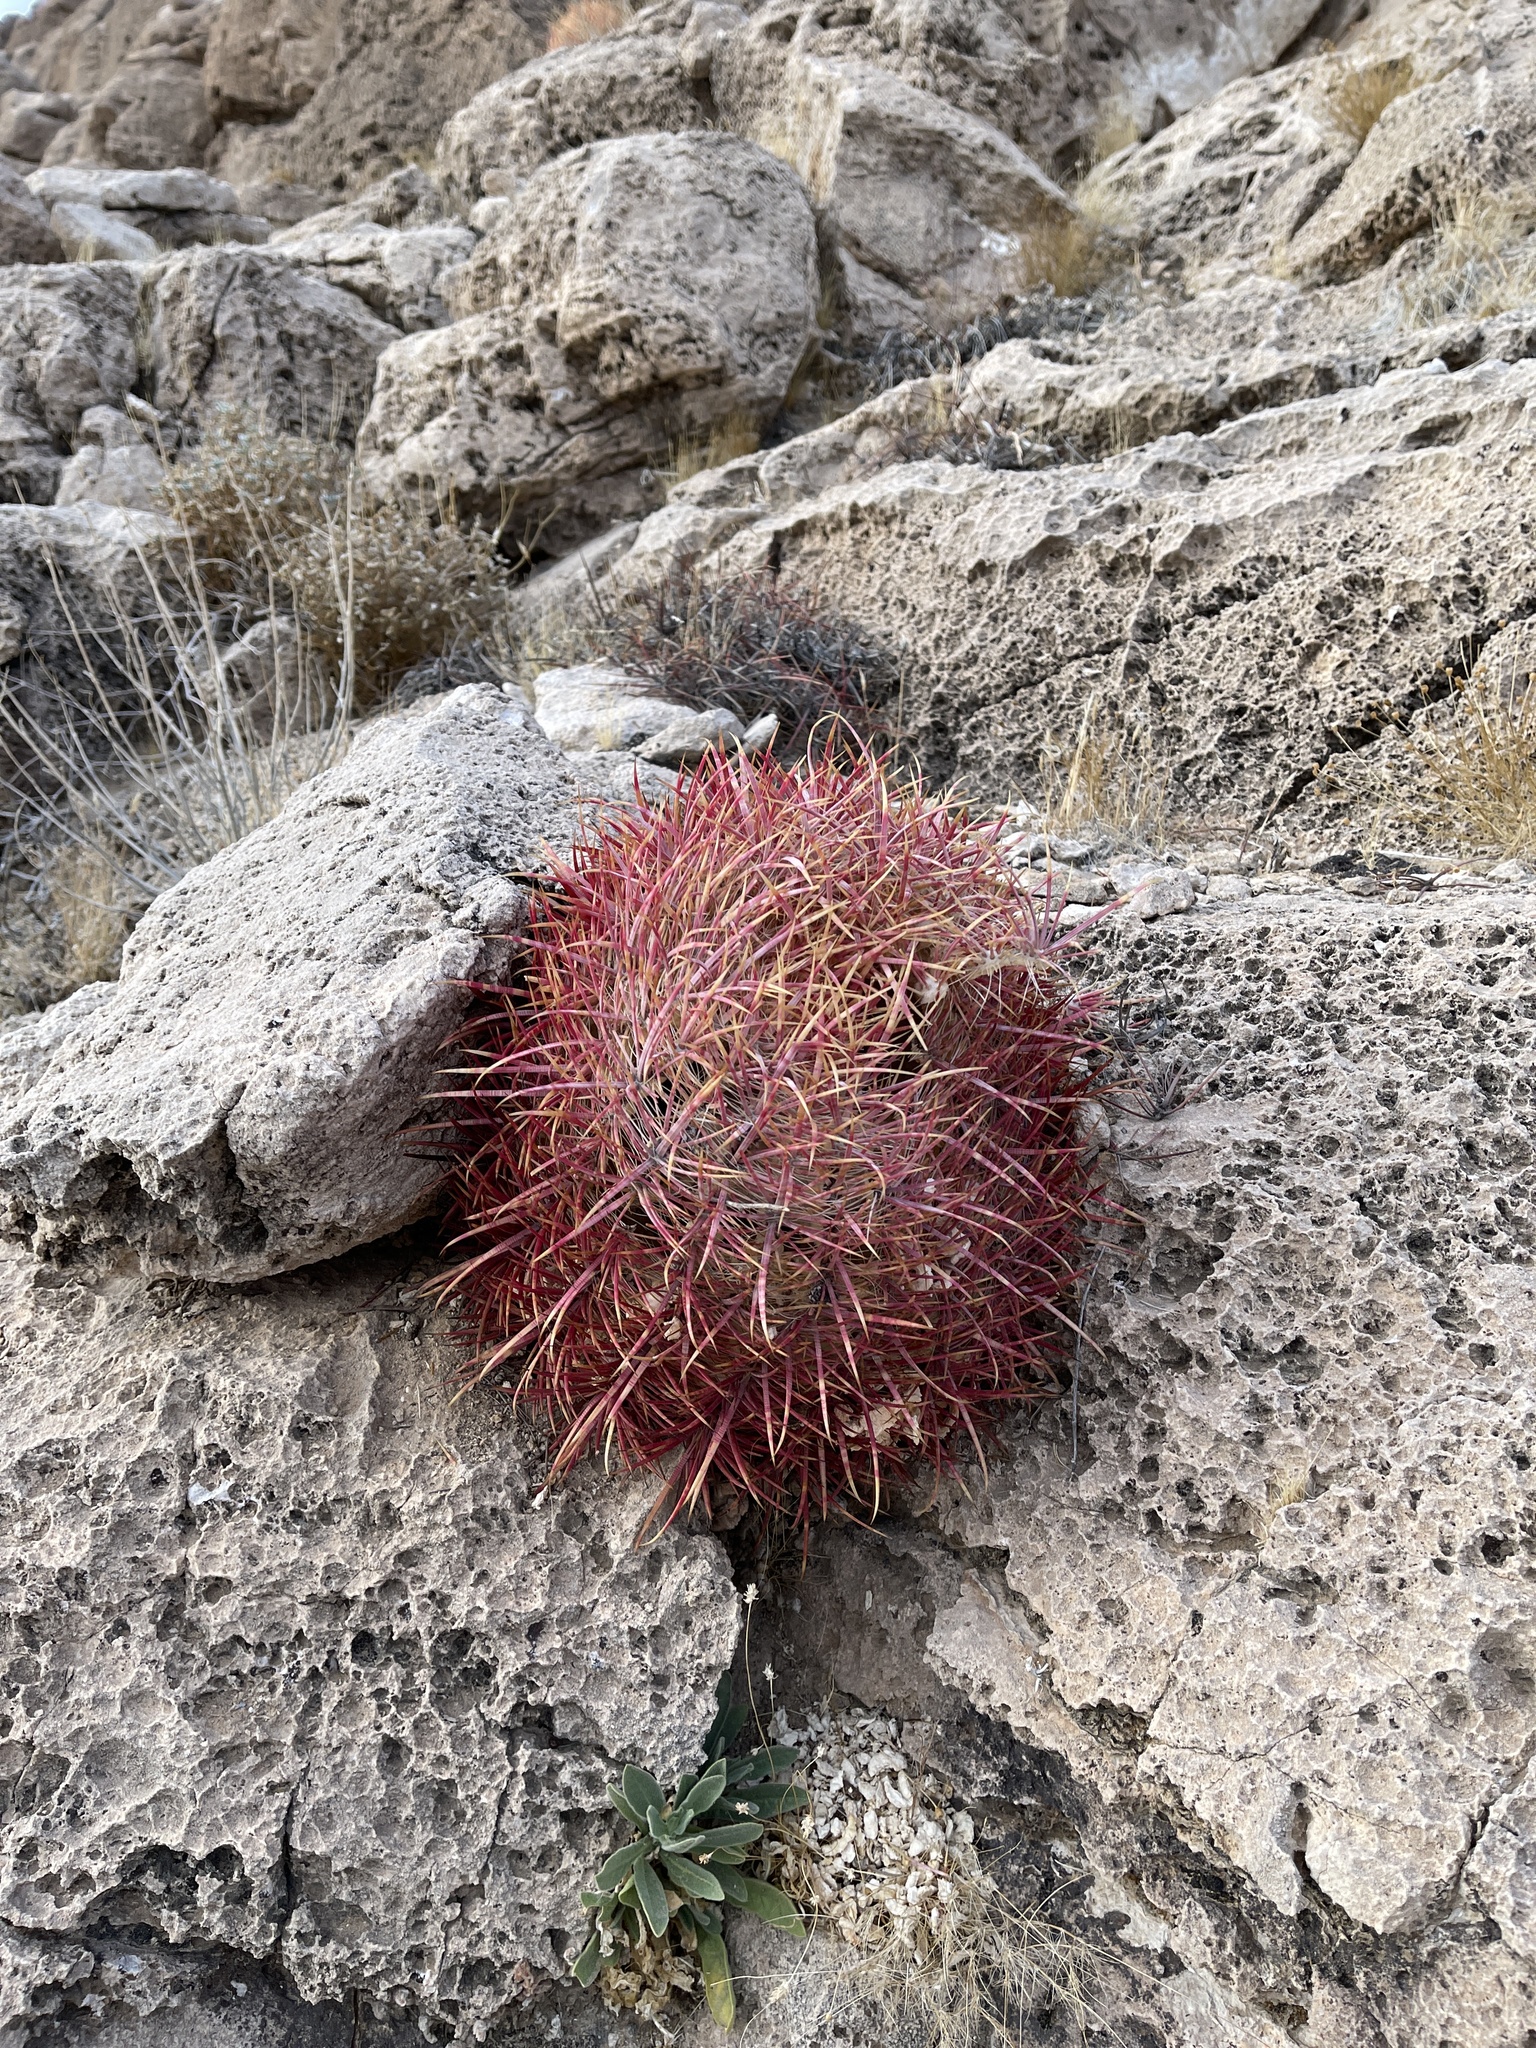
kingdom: Plantae
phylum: Tracheophyta
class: Magnoliopsida
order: Caryophyllales
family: Cactaceae
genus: Ferocactus
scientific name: Ferocactus cylindraceus
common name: California barrel cactus
